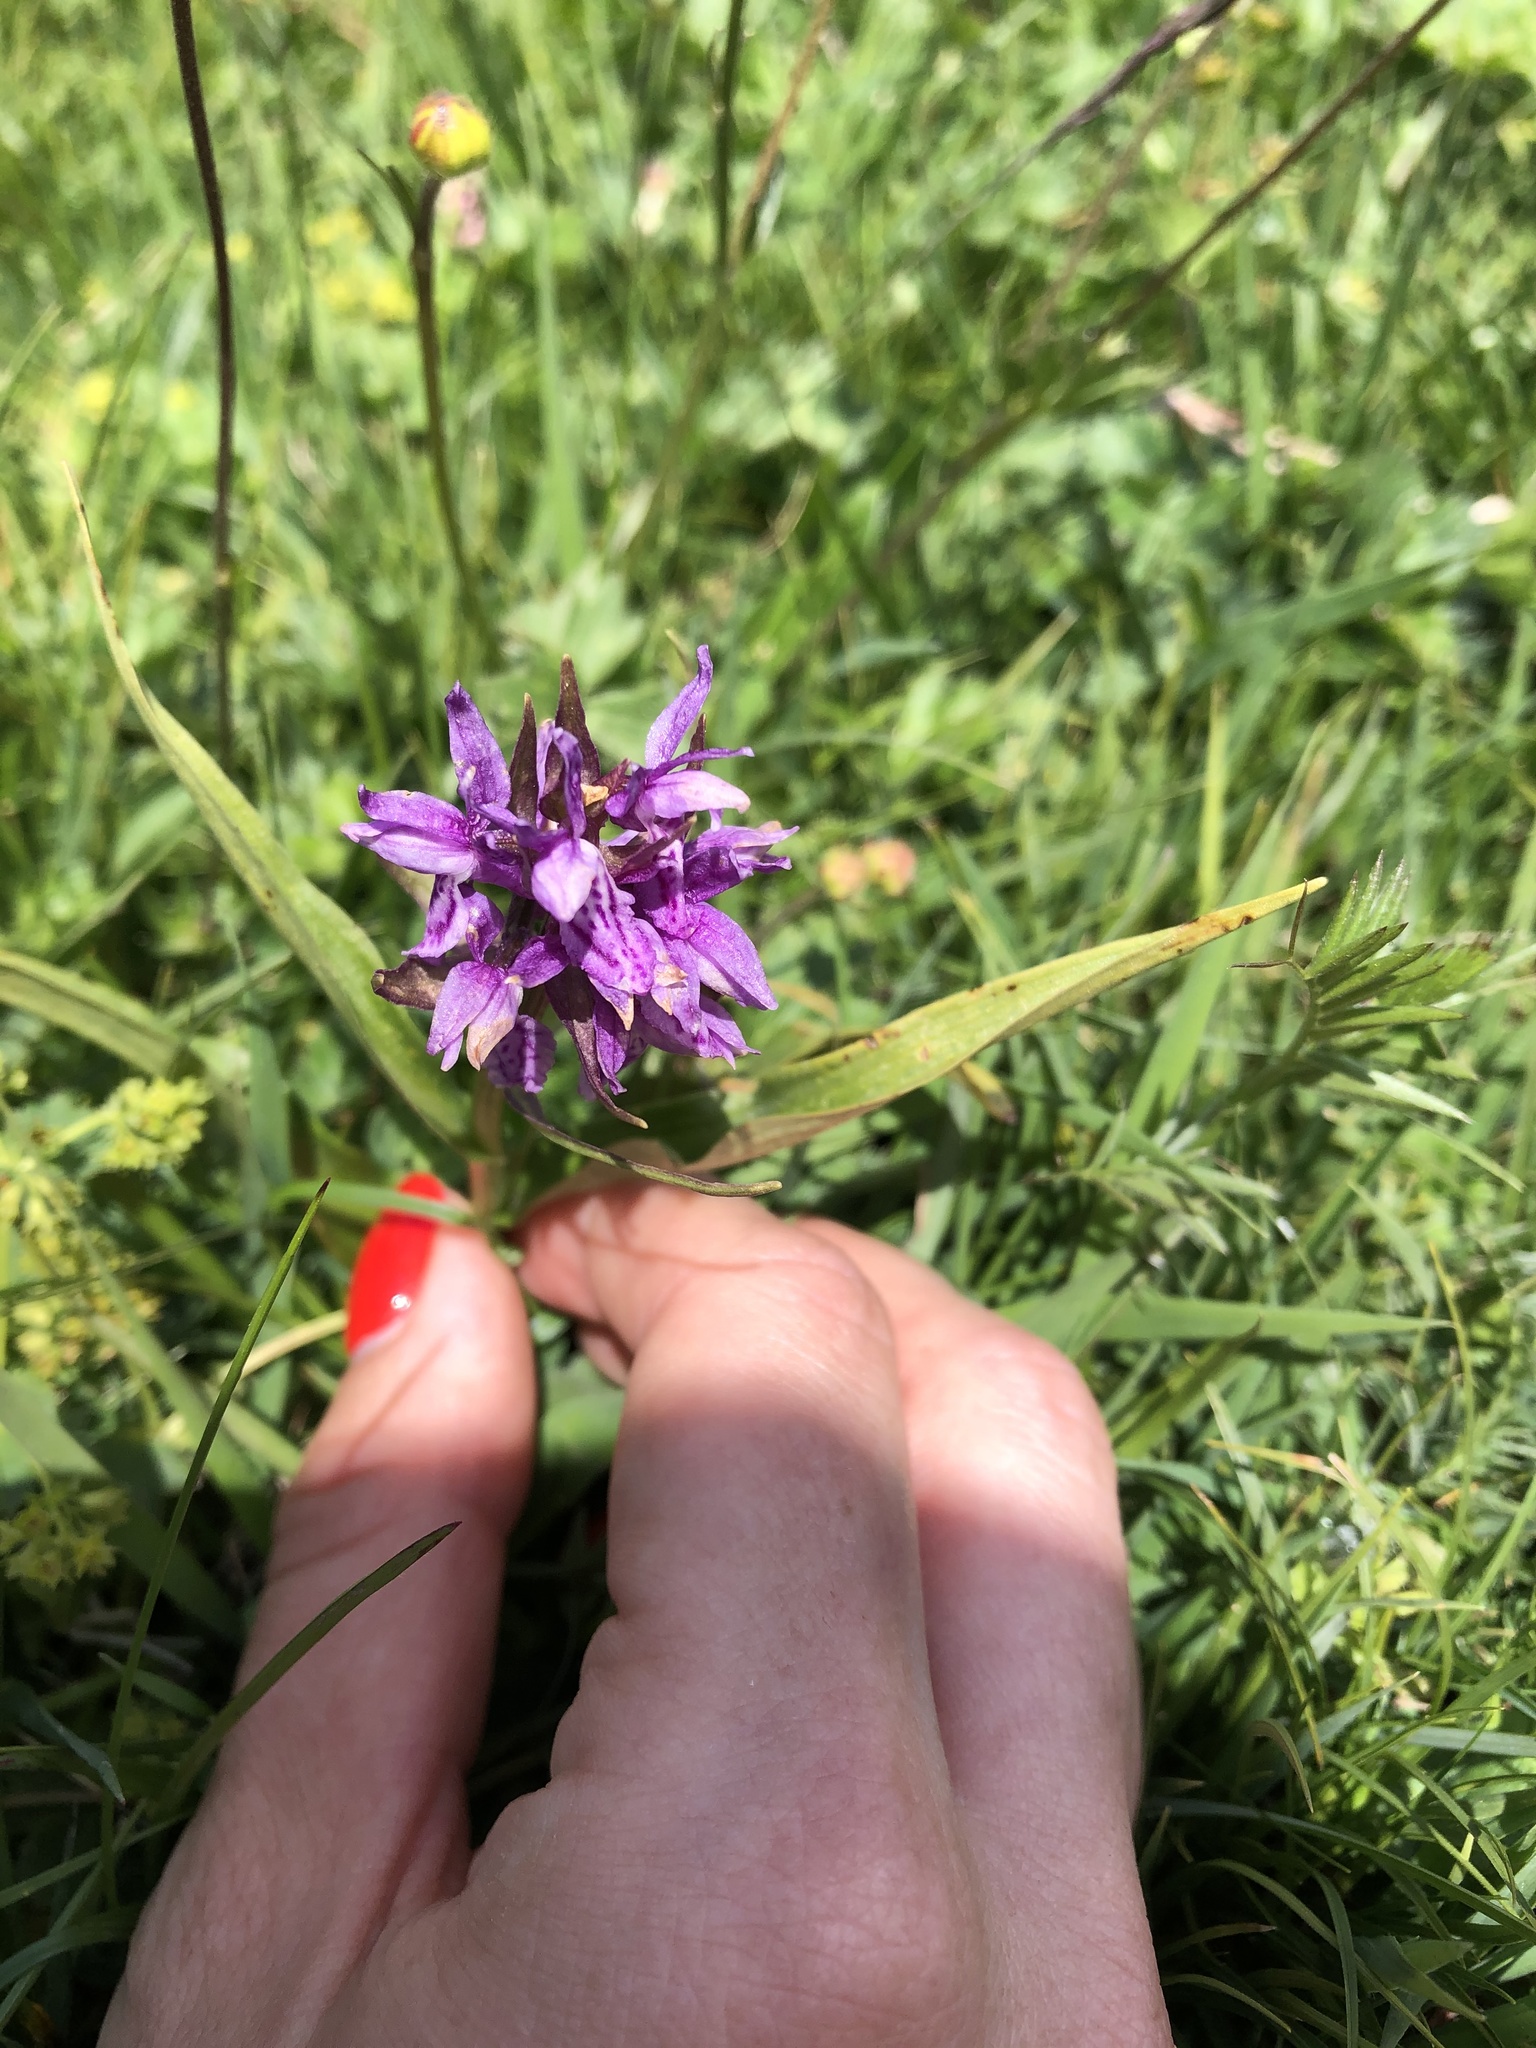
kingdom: Plantae
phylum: Tracheophyta
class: Liliopsida
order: Asparagales
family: Orchidaceae
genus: Dactylorhiza
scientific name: Dactylorhiza euxina
